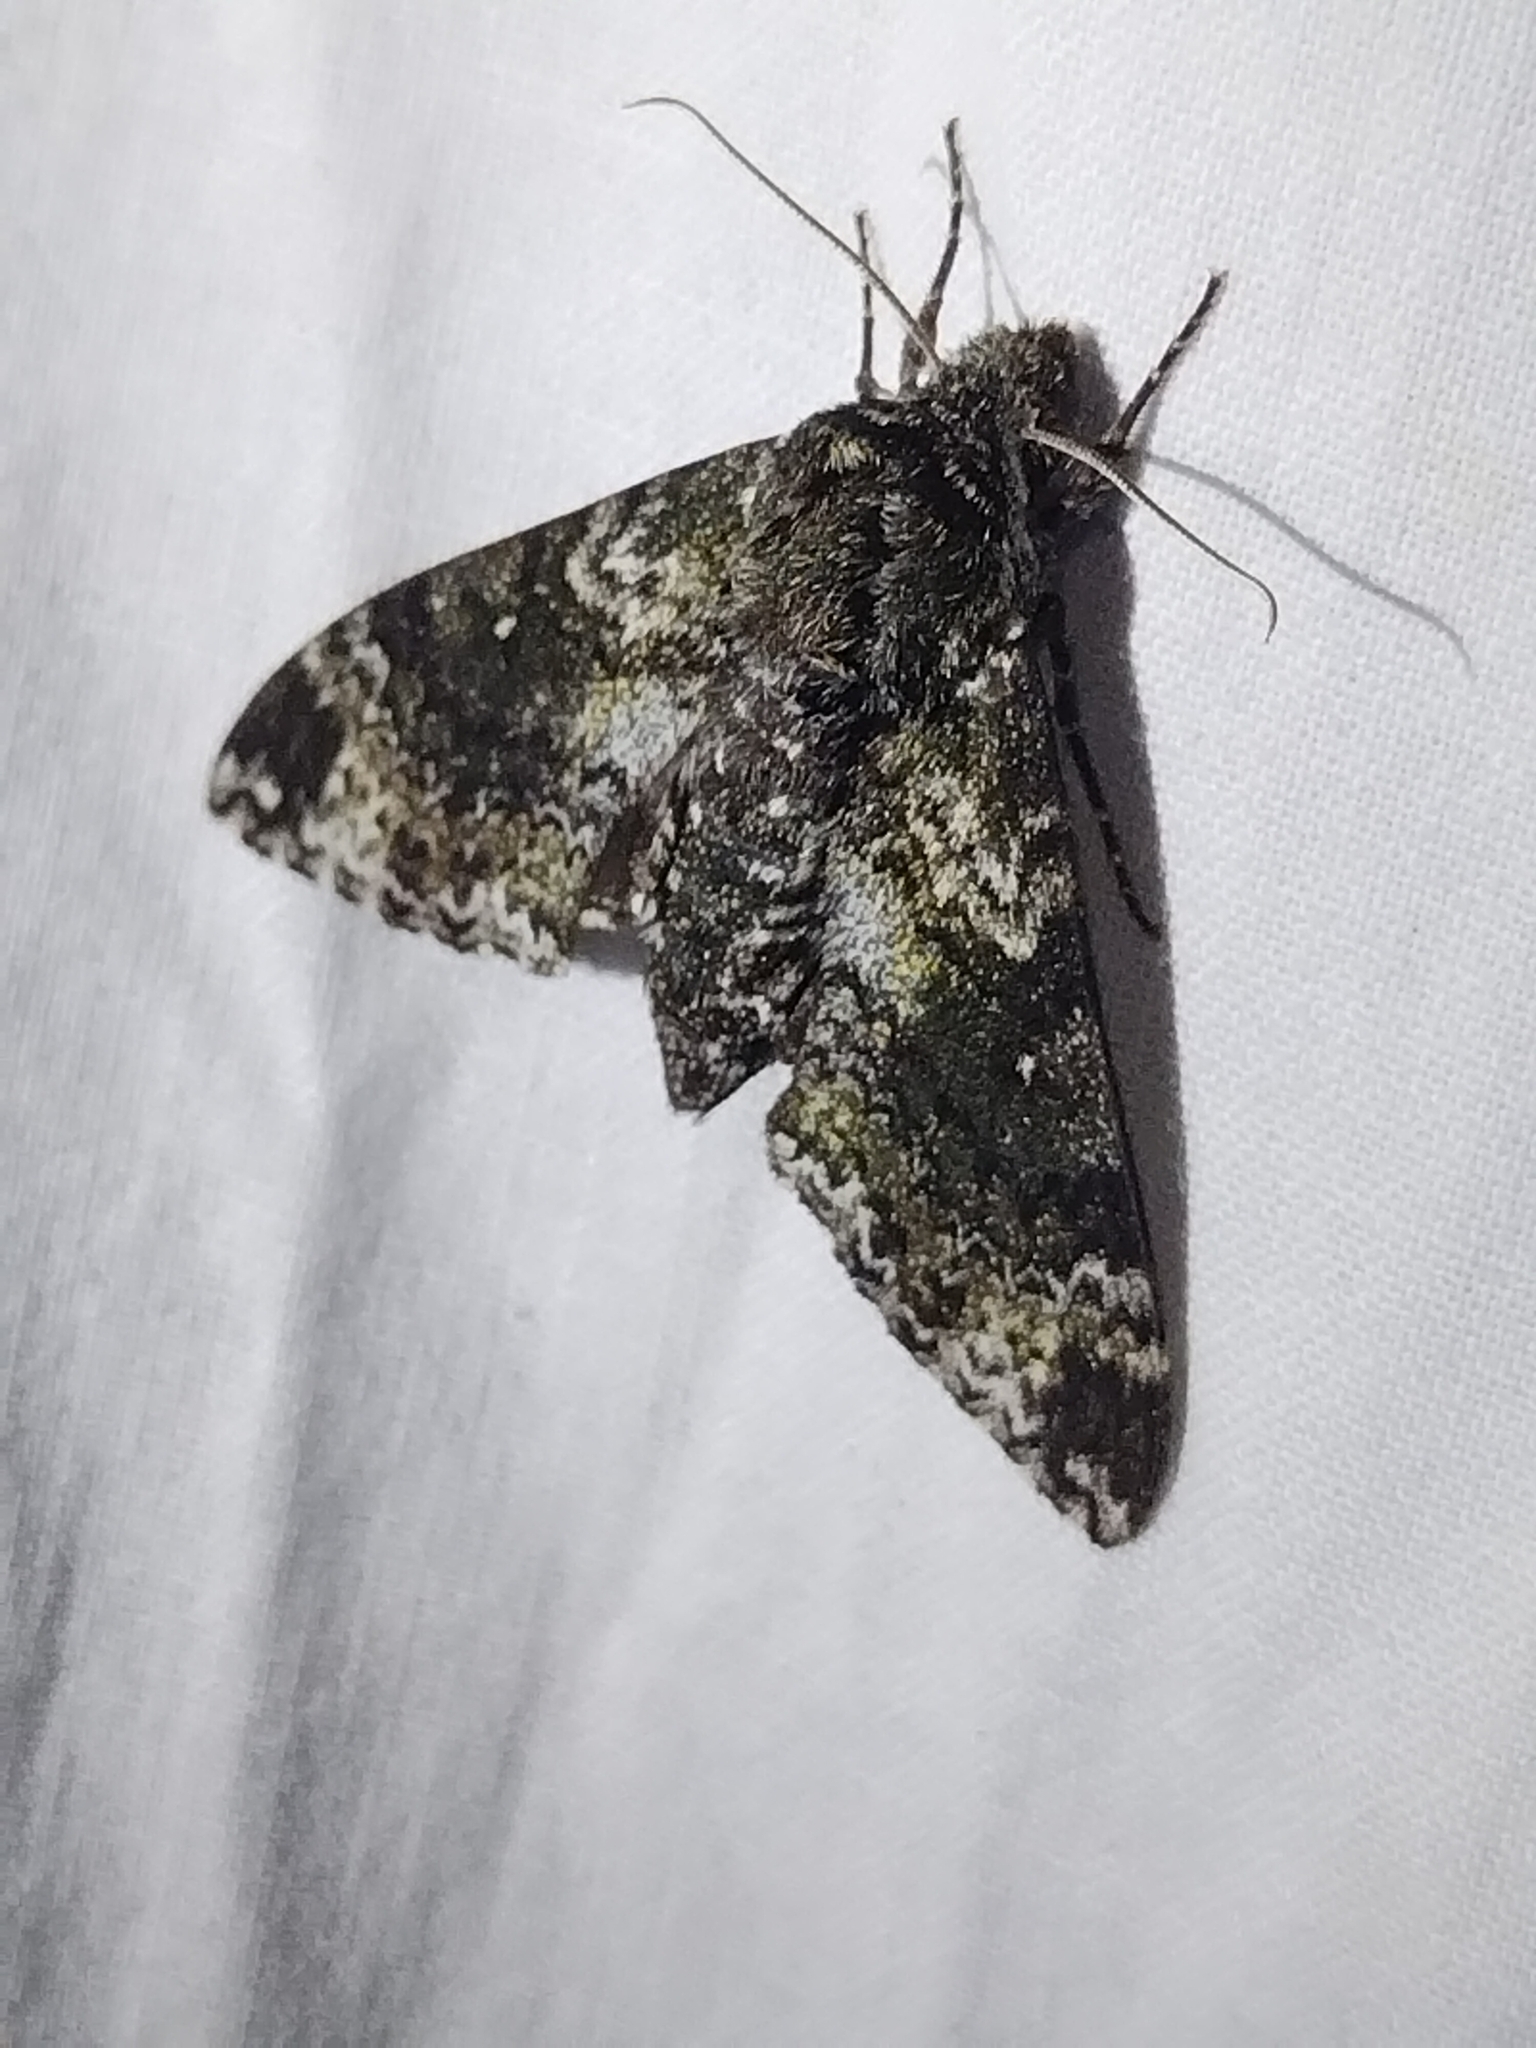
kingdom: Animalia
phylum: Arthropoda
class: Insecta
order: Lepidoptera
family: Sphingidae
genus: Dolba
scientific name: Dolba hyloeus
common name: Pawpaw sphinx
